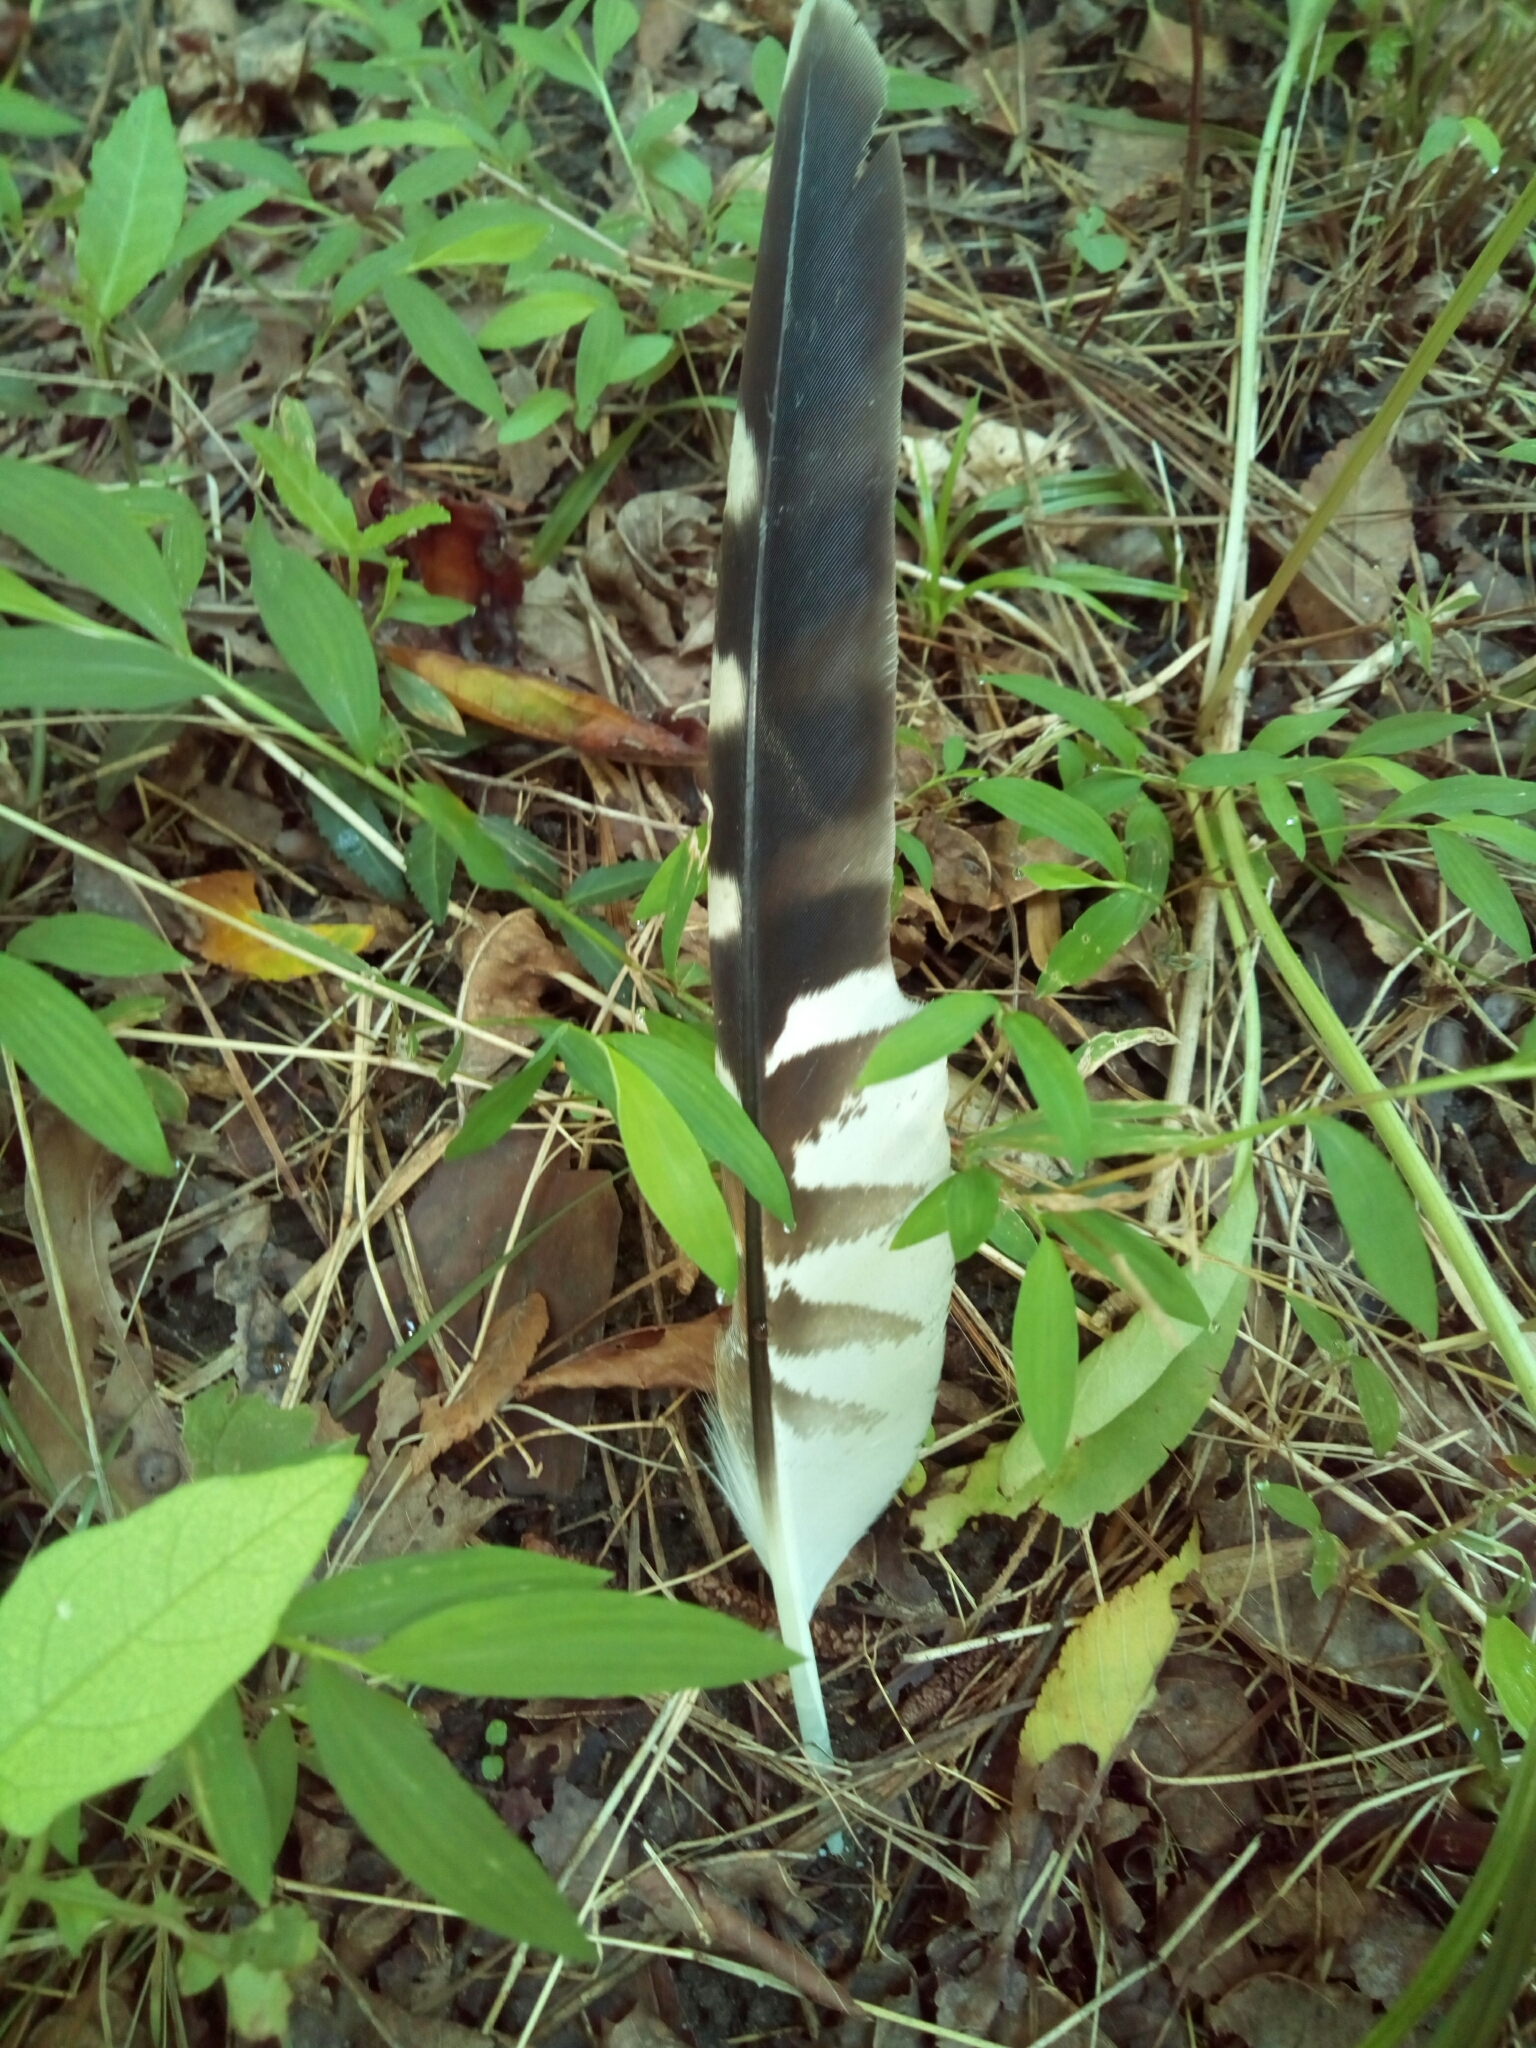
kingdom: Animalia
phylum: Chordata
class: Aves
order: Accipitriformes
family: Accipitridae
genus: Buteo
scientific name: Buteo lineatus
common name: Red-shouldered hawk
